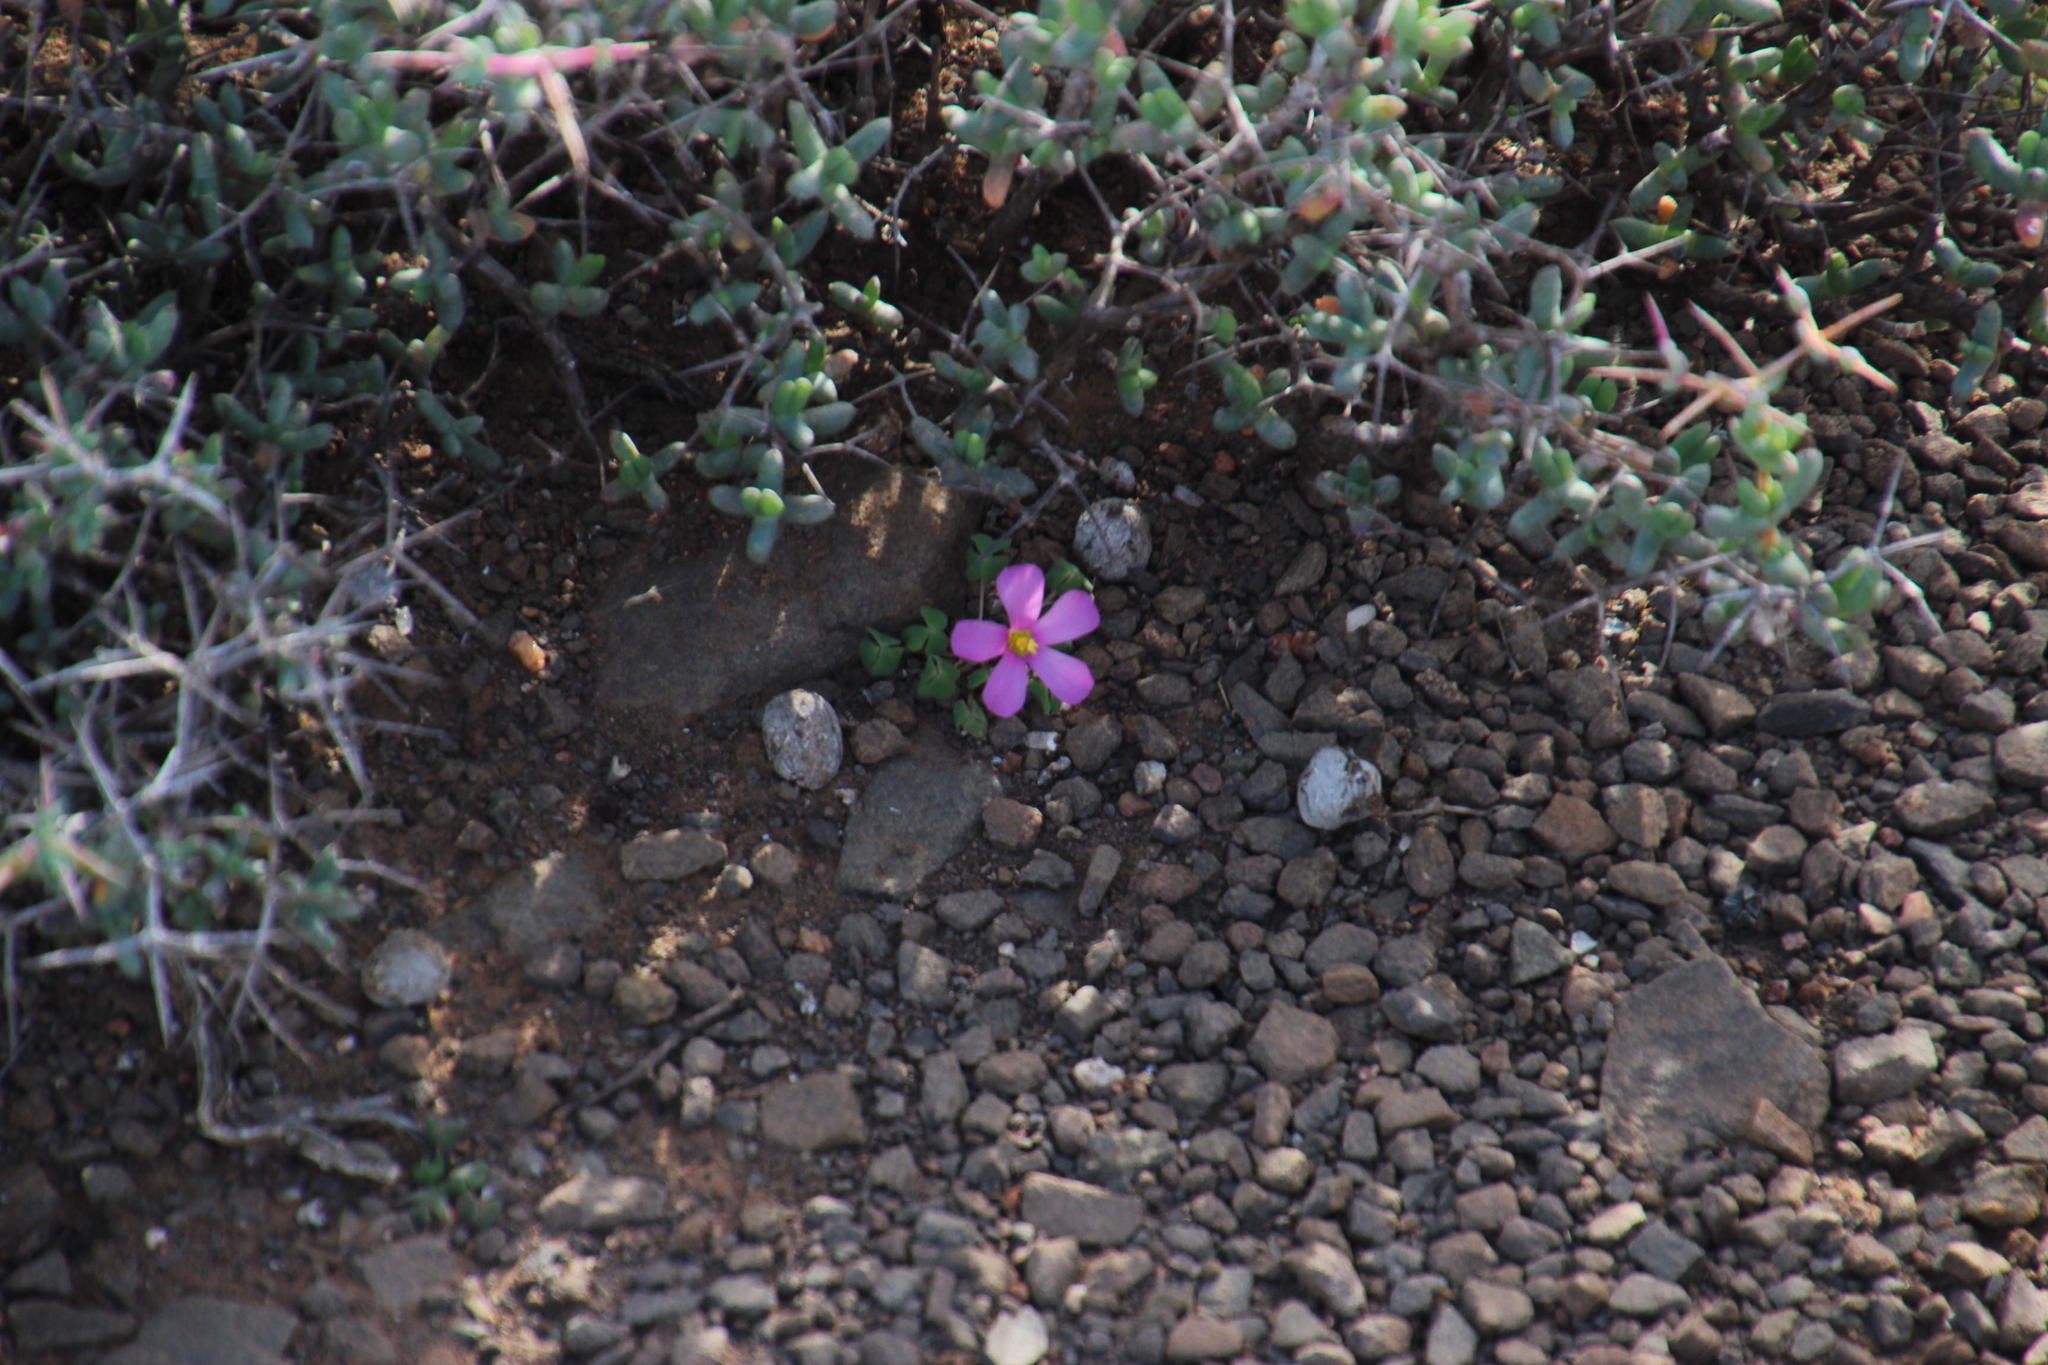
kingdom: Plantae
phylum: Tracheophyta
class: Magnoliopsida
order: Oxalidales
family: Oxalidaceae
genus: Oxalis
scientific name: Oxalis fergusoniae
